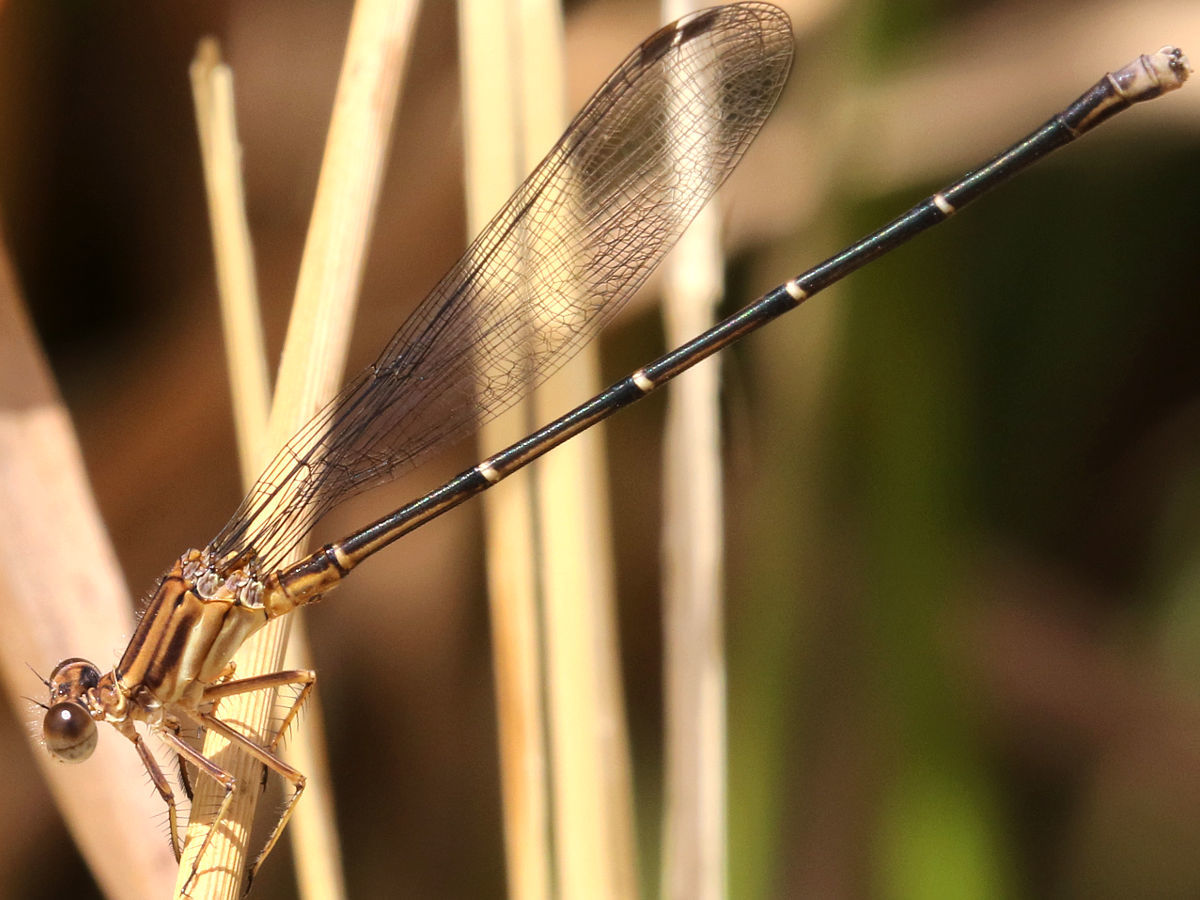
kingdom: Animalia
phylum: Arthropoda
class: Insecta
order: Odonata
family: Coenagrionidae
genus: Argia
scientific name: Argia moesta
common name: Powdered dancer
